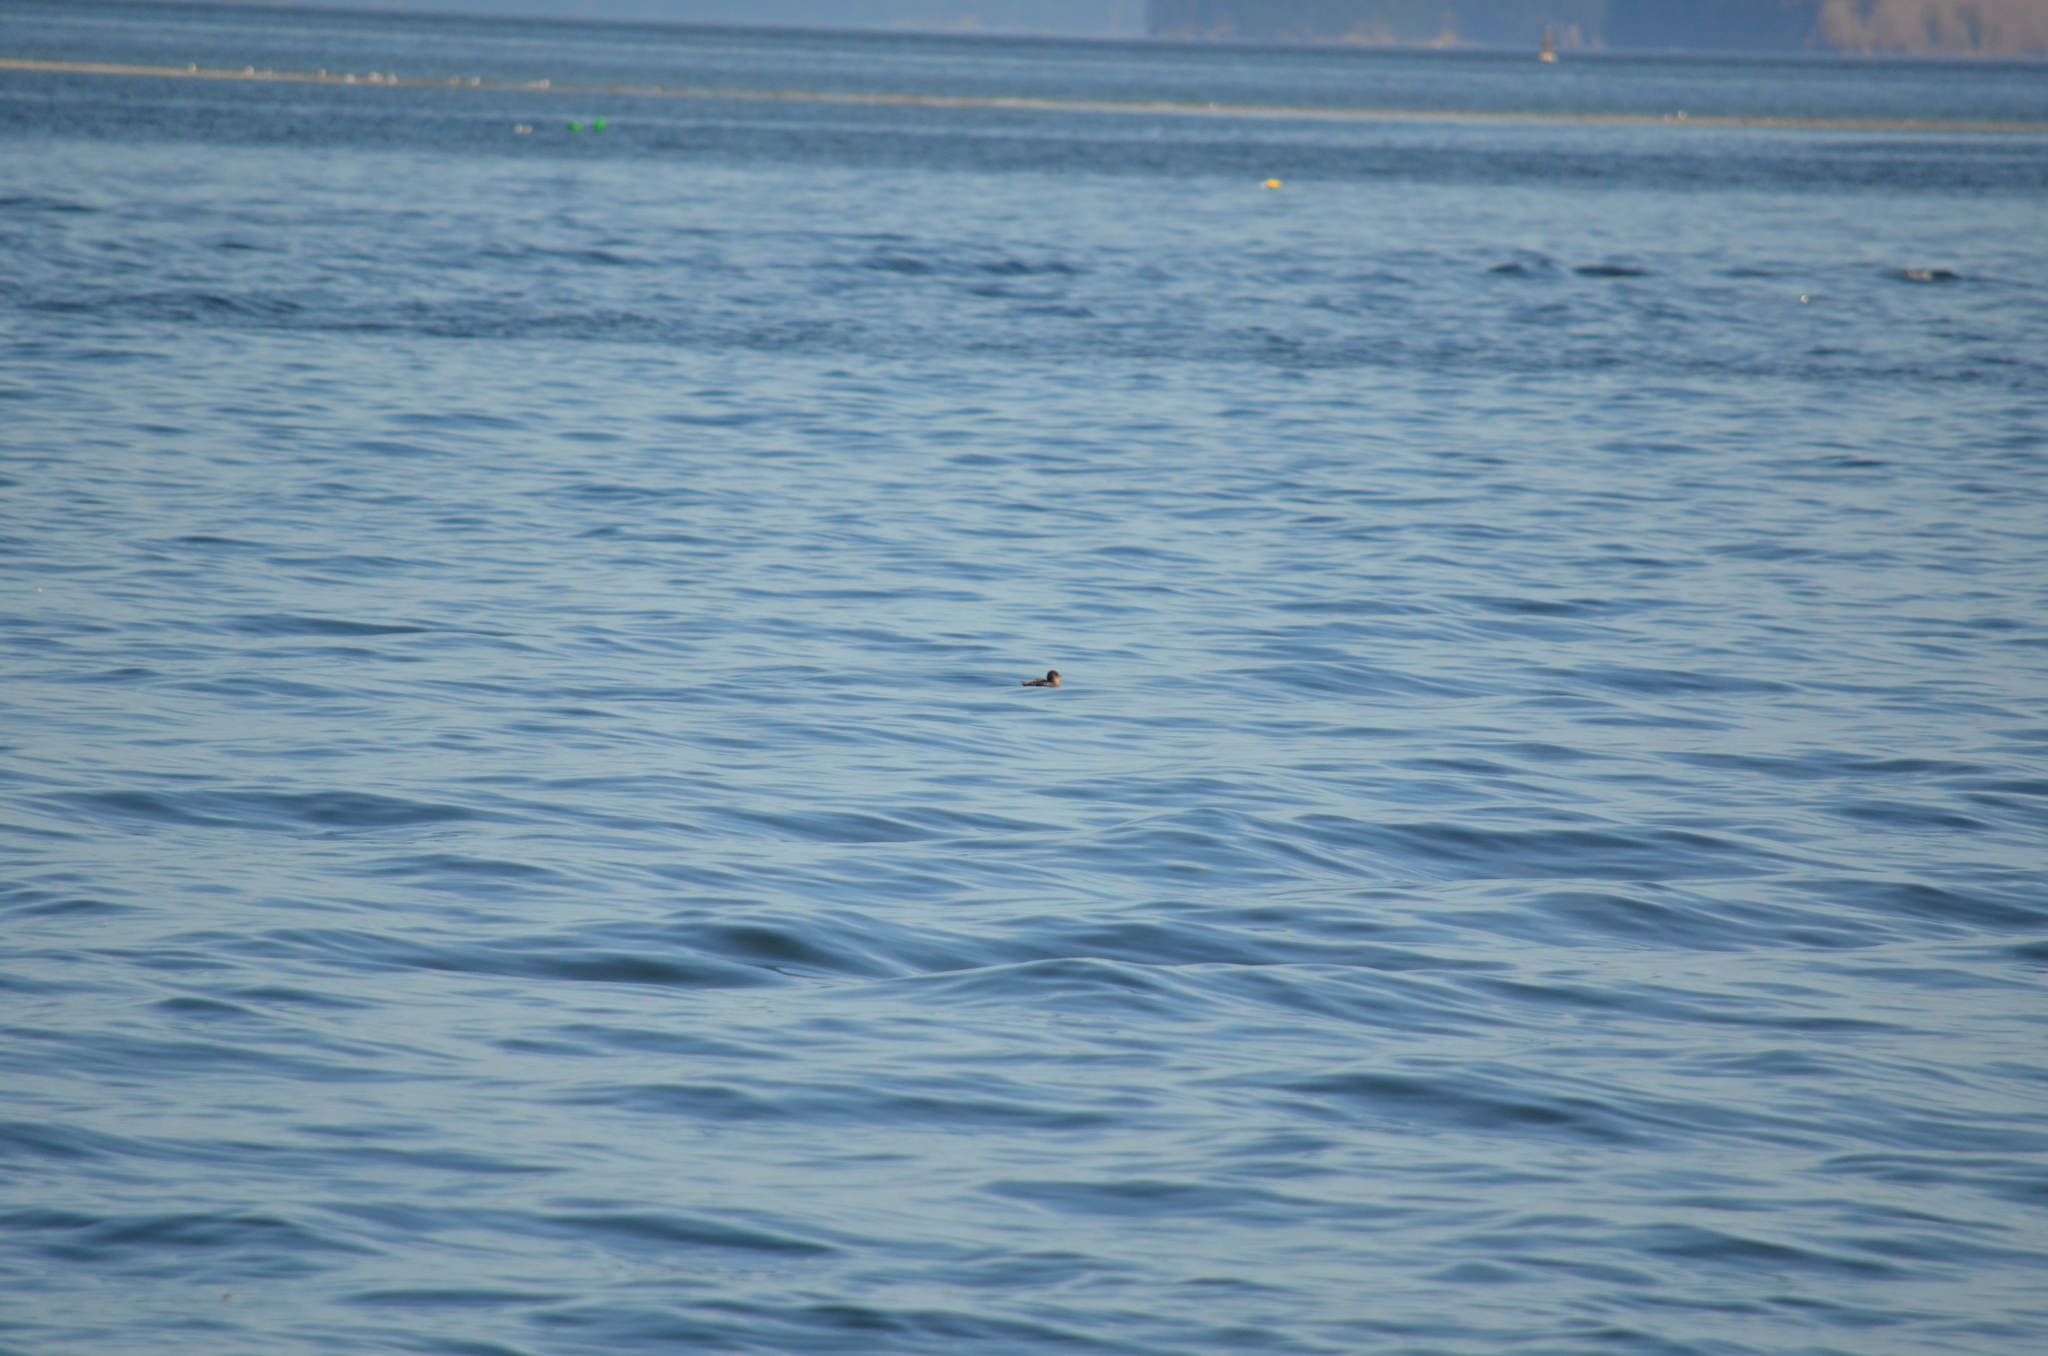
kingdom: Animalia
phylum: Chordata
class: Aves
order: Charadriiformes
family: Alcidae
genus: Cerorhinca
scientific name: Cerorhinca monocerata
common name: Rhinoceros auklet
